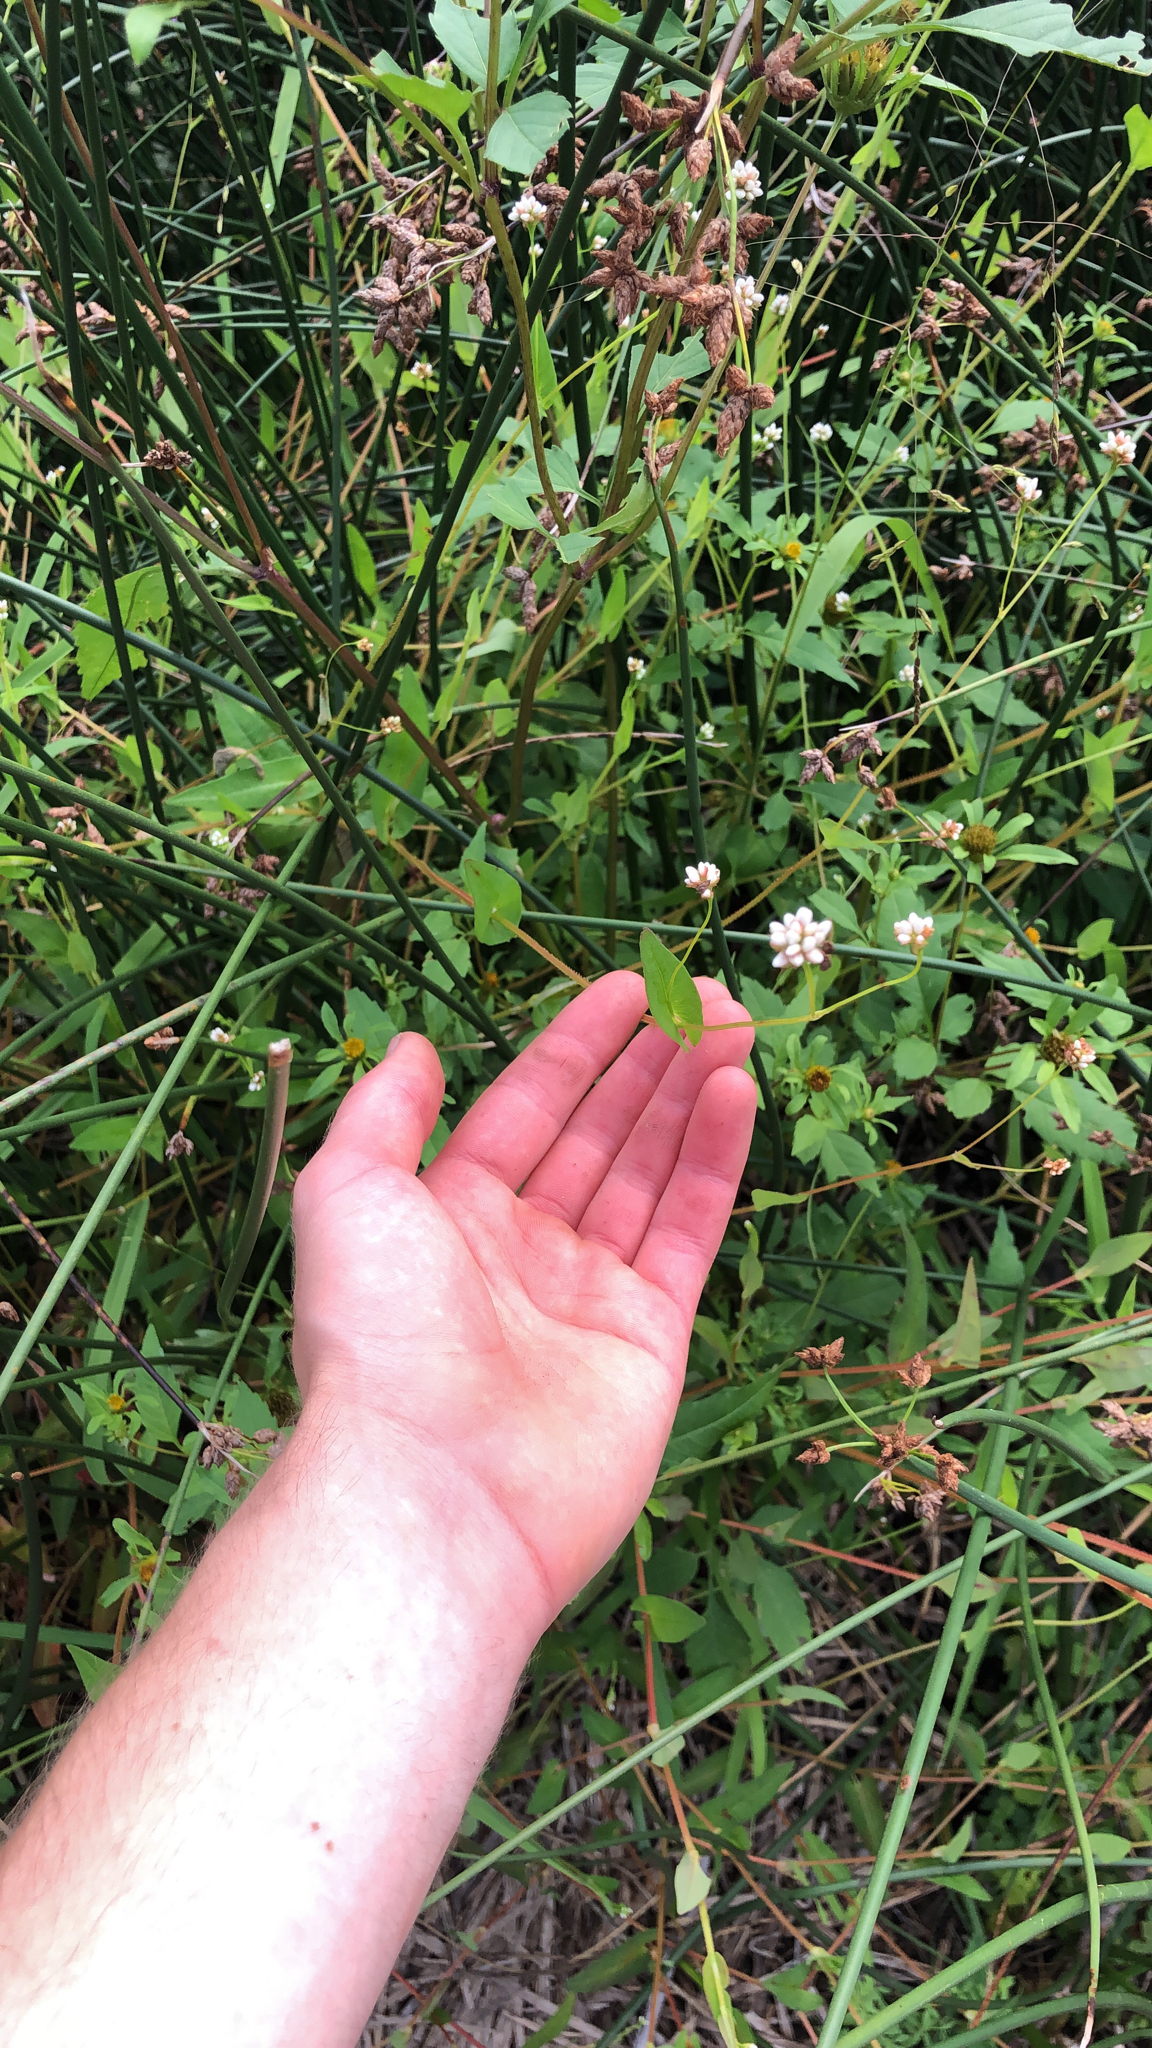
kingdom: Plantae
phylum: Tracheophyta
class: Magnoliopsida
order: Caryophyllales
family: Polygonaceae
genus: Persicaria
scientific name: Persicaria sagittata
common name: American tearthumb
